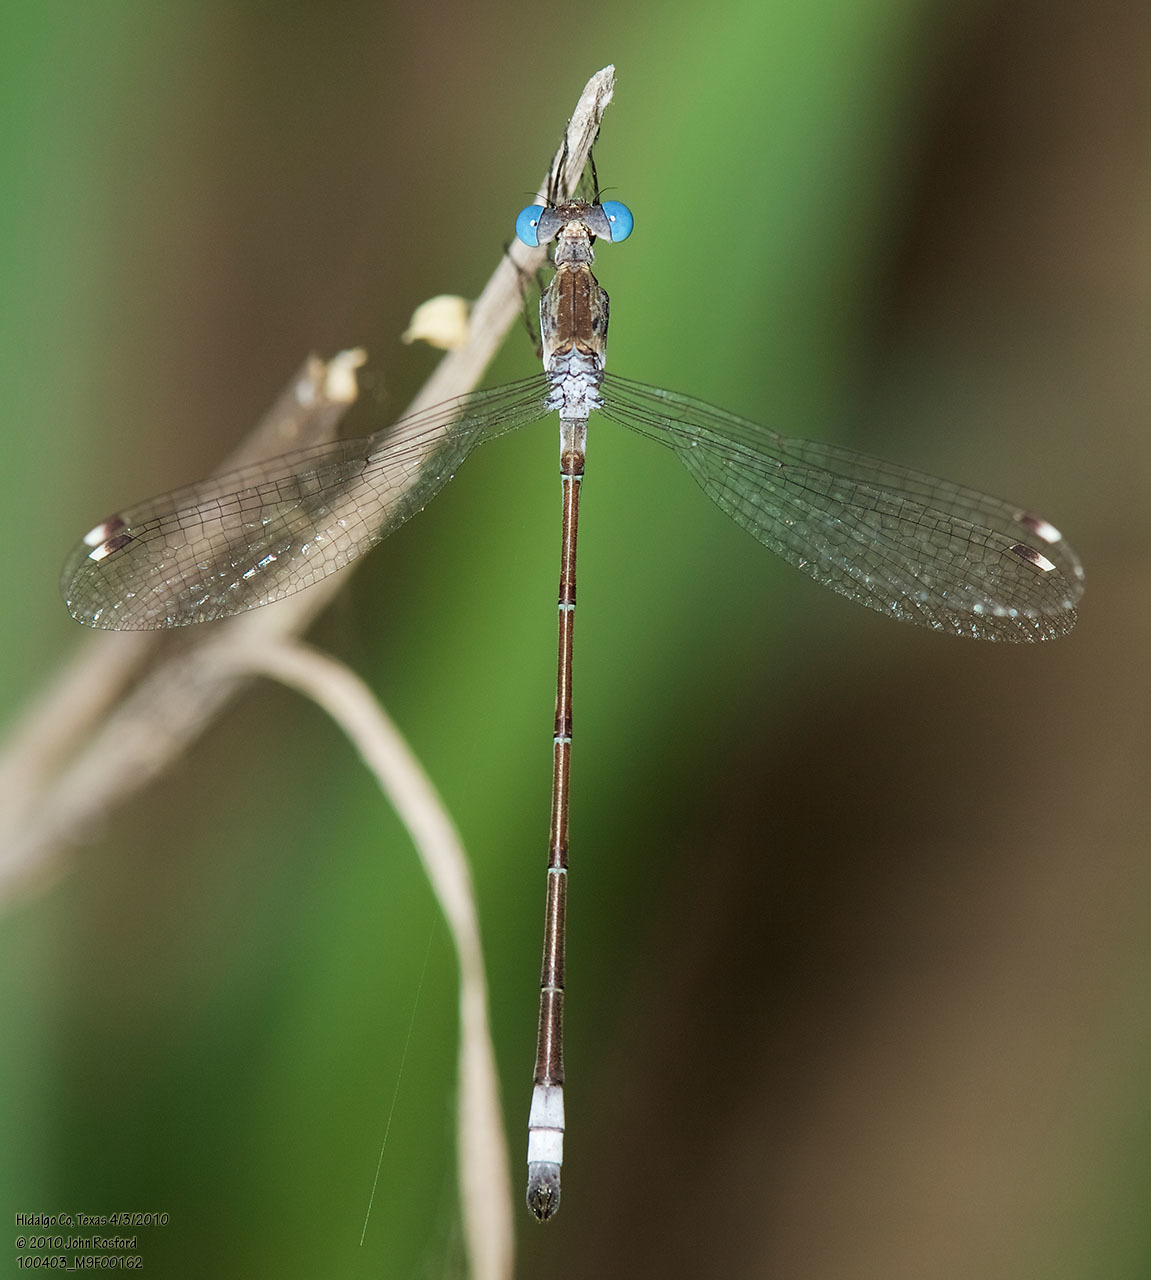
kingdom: Animalia
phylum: Arthropoda
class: Insecta
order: Odonata
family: Lestidae
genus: Lestes
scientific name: Lestes sigma
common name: Chalky spreadwing
